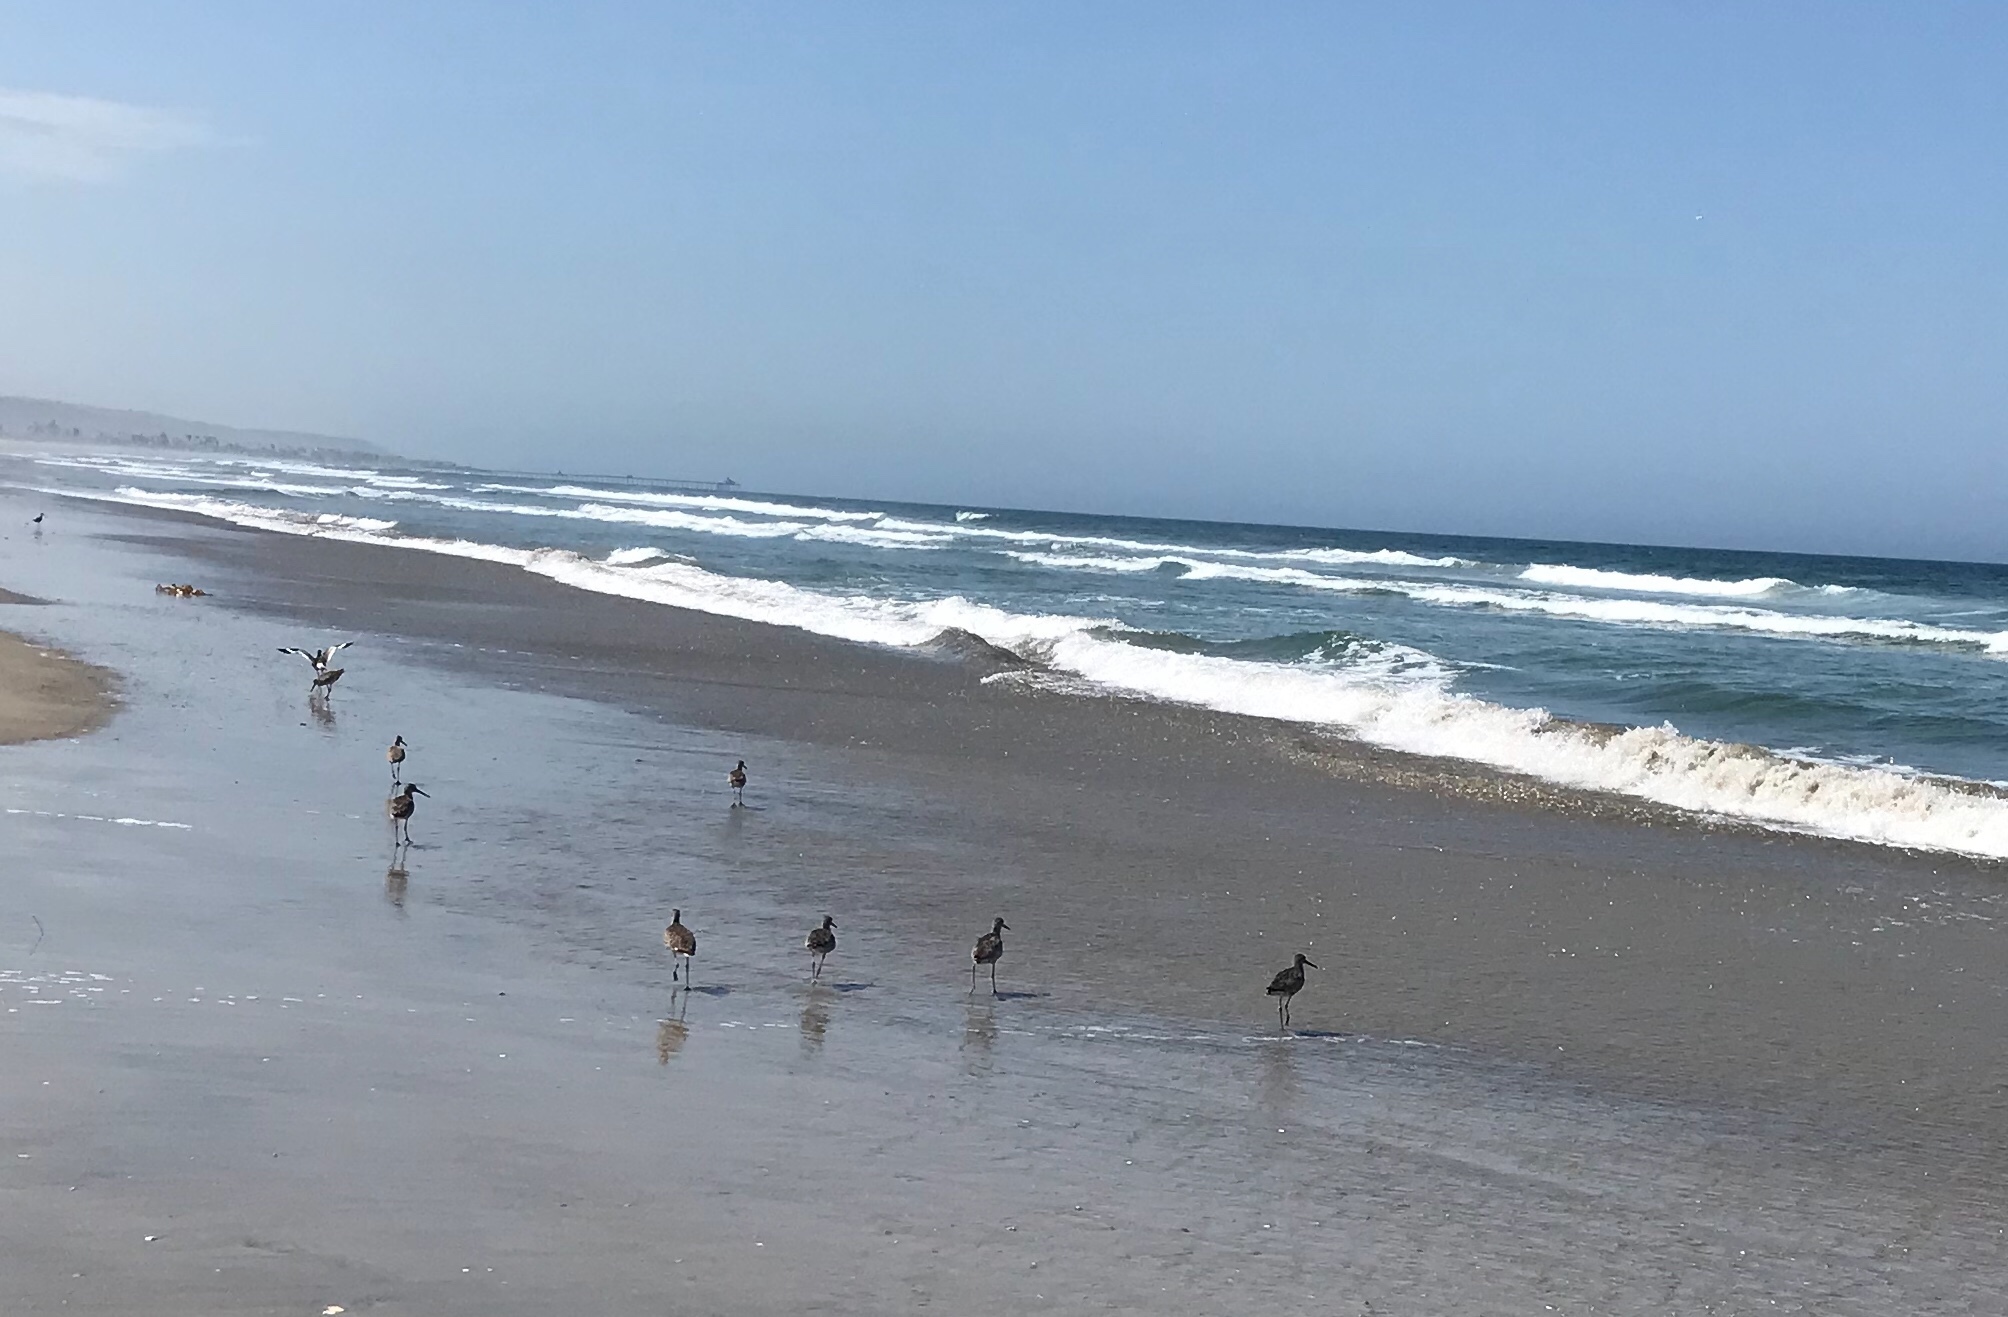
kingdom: Animalia
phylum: Chordata
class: Aves
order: Charadriiformes
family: Scolopacidae
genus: Tringa
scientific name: Tringa semipalmata
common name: Willet
